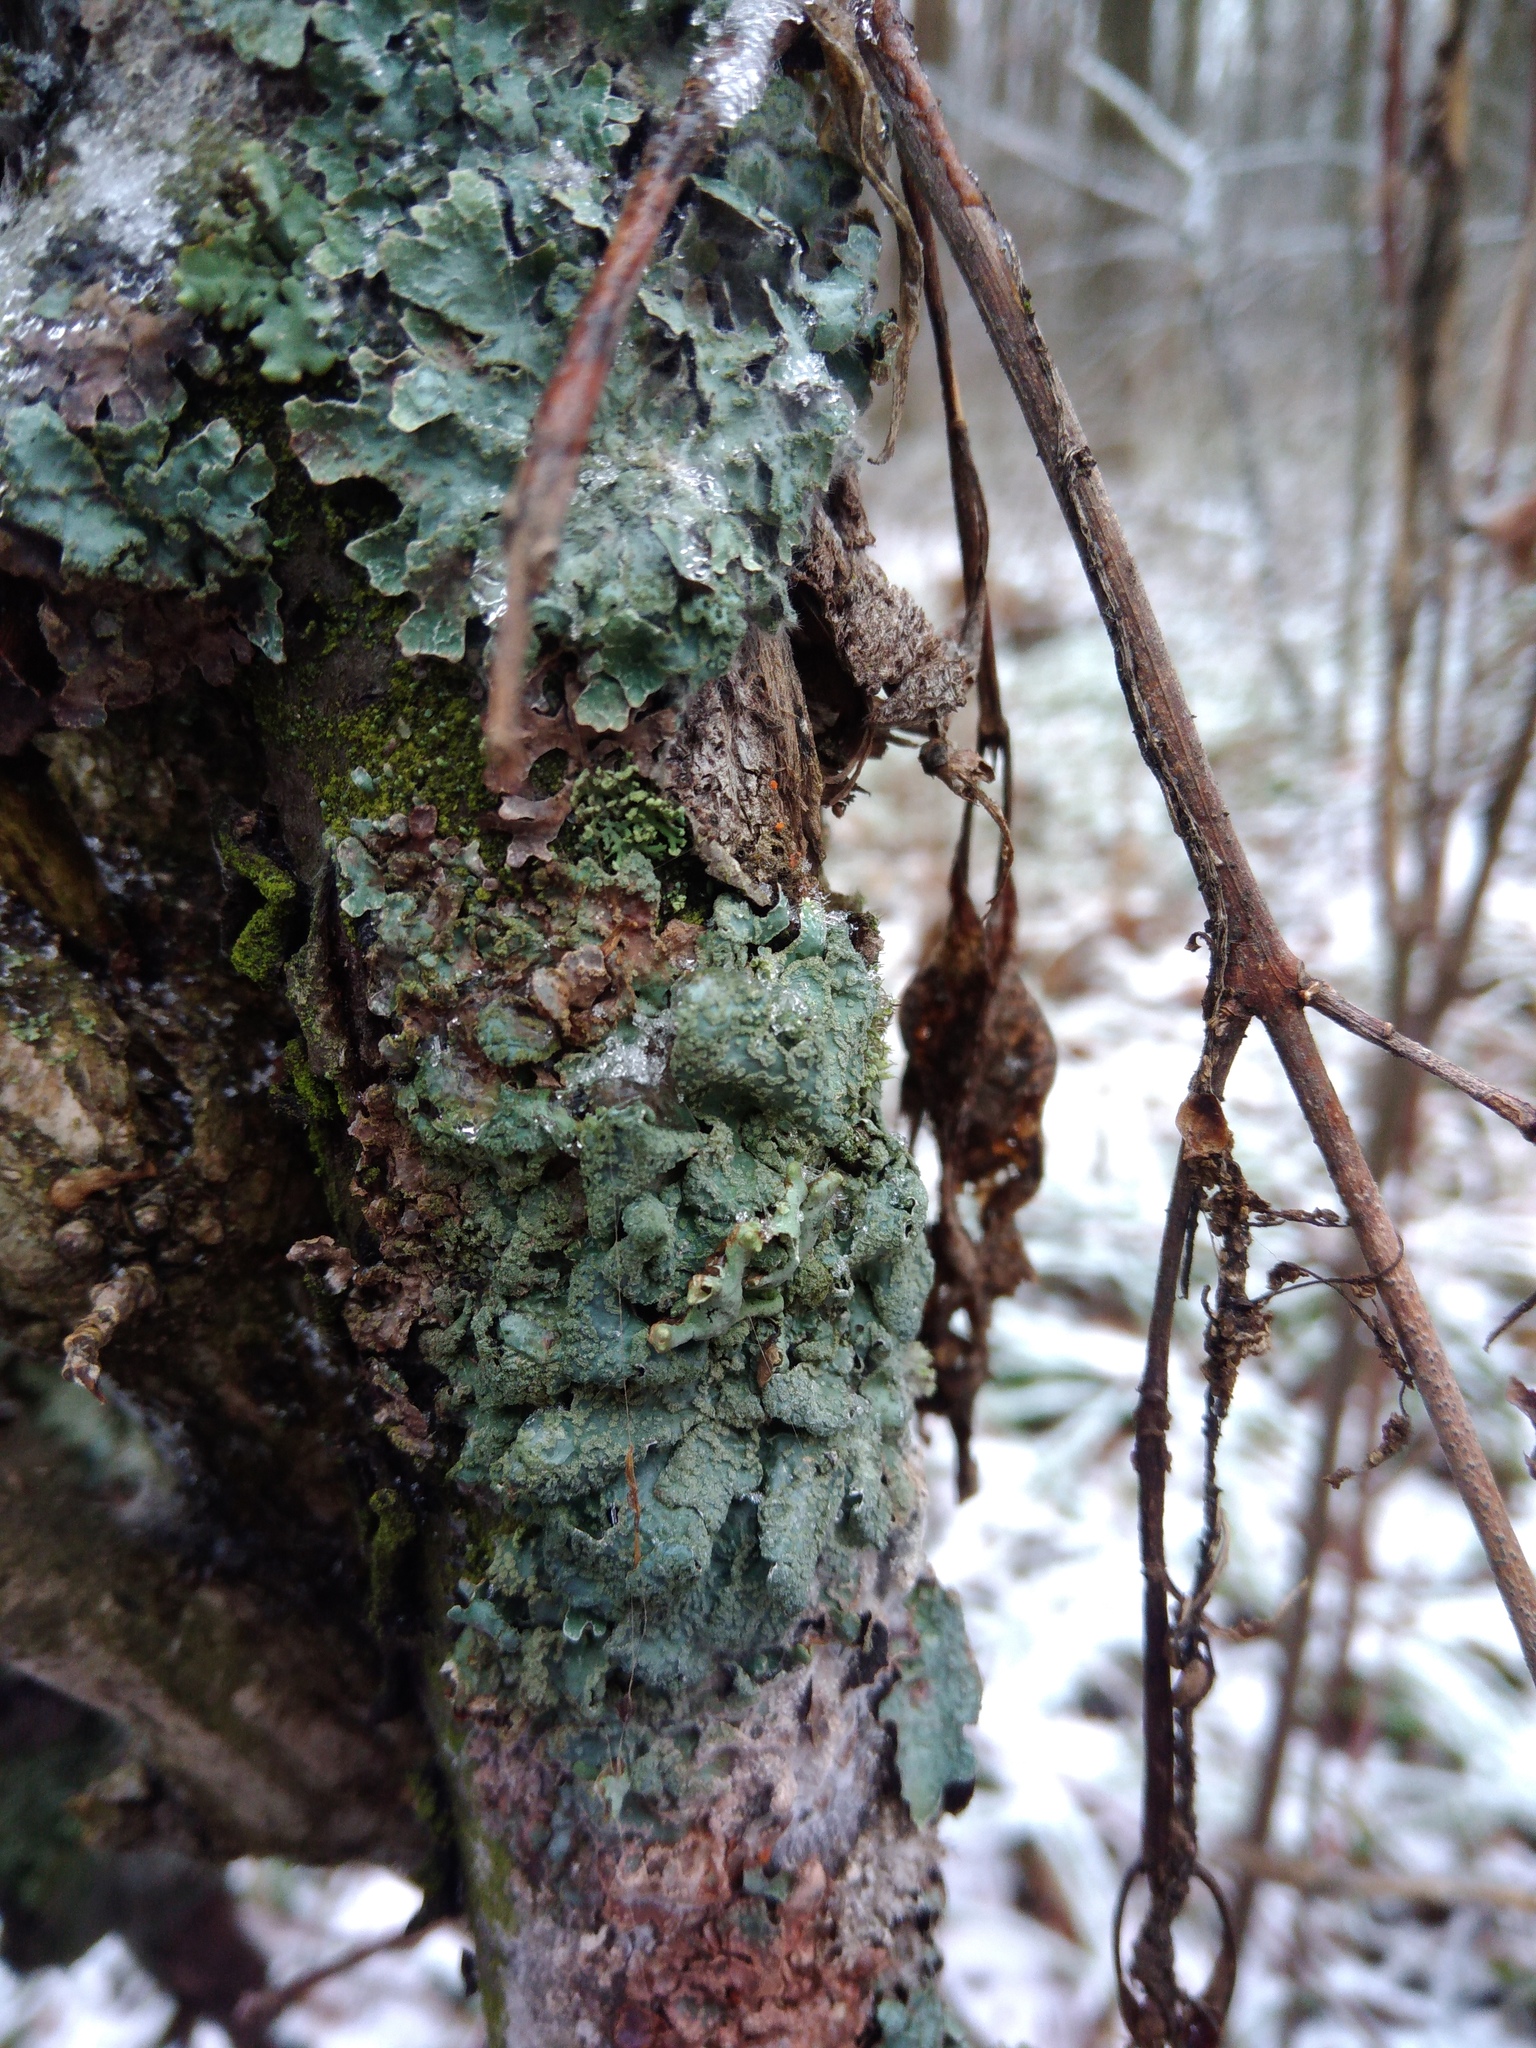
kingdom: Fungi
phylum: Ascomycota
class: Lecanoromycetes
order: Lecanorales
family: Parmeliaceae
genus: Parmelia
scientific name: Parmelia sulcata
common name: Netted shield lichen
